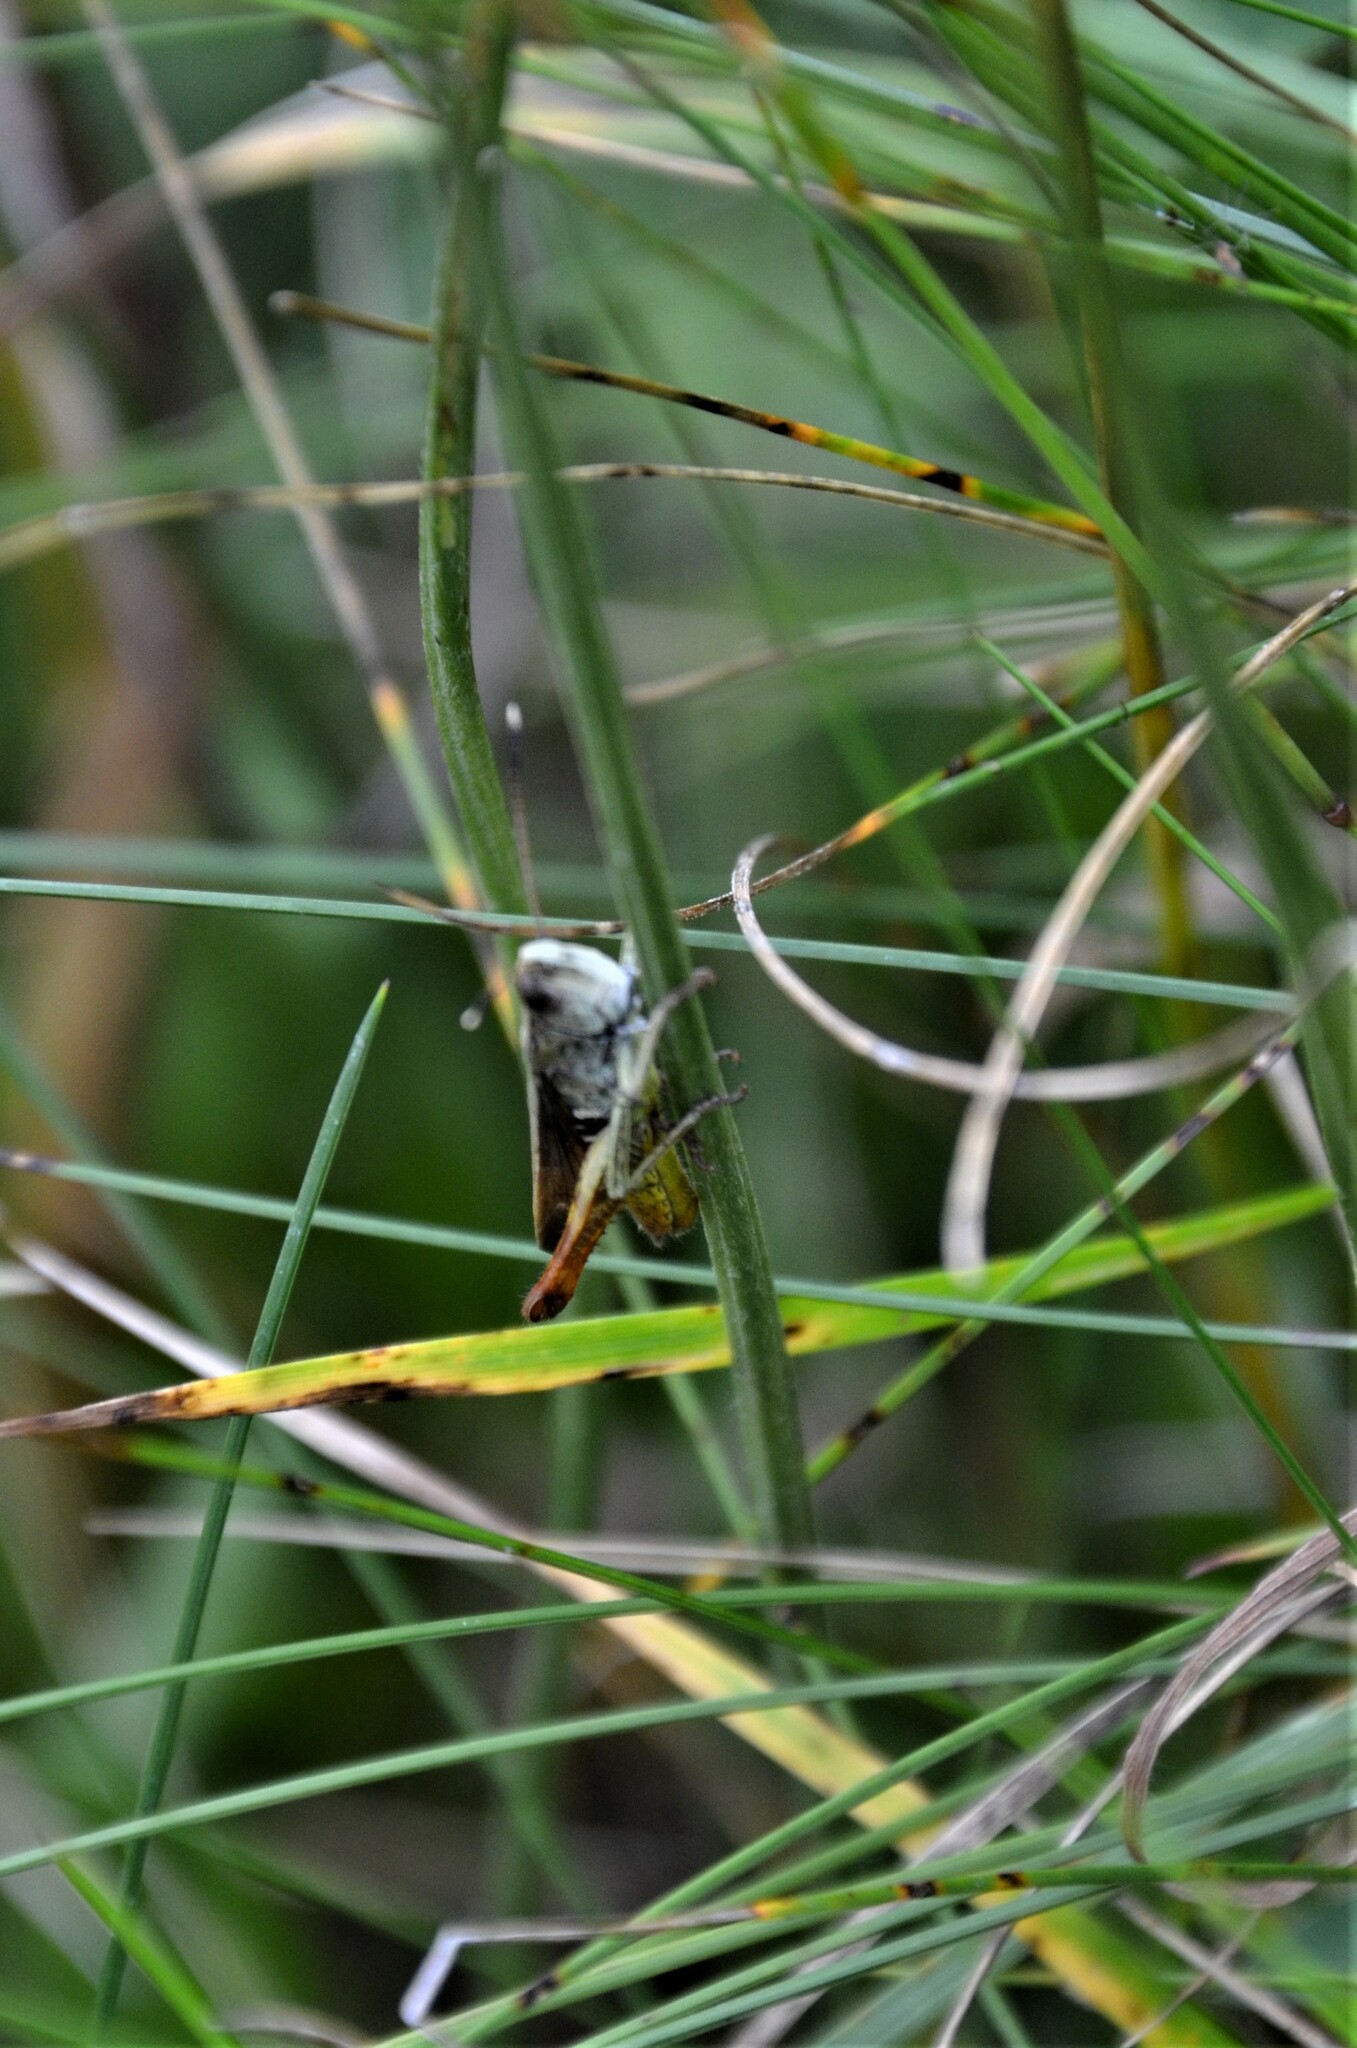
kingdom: Animalia
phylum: Arthropoda
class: Insecta
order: Orthoptera
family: Acrididae
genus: Gomphocerippus
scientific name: Gomphocerippus rufus
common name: Rufous grasshopper
